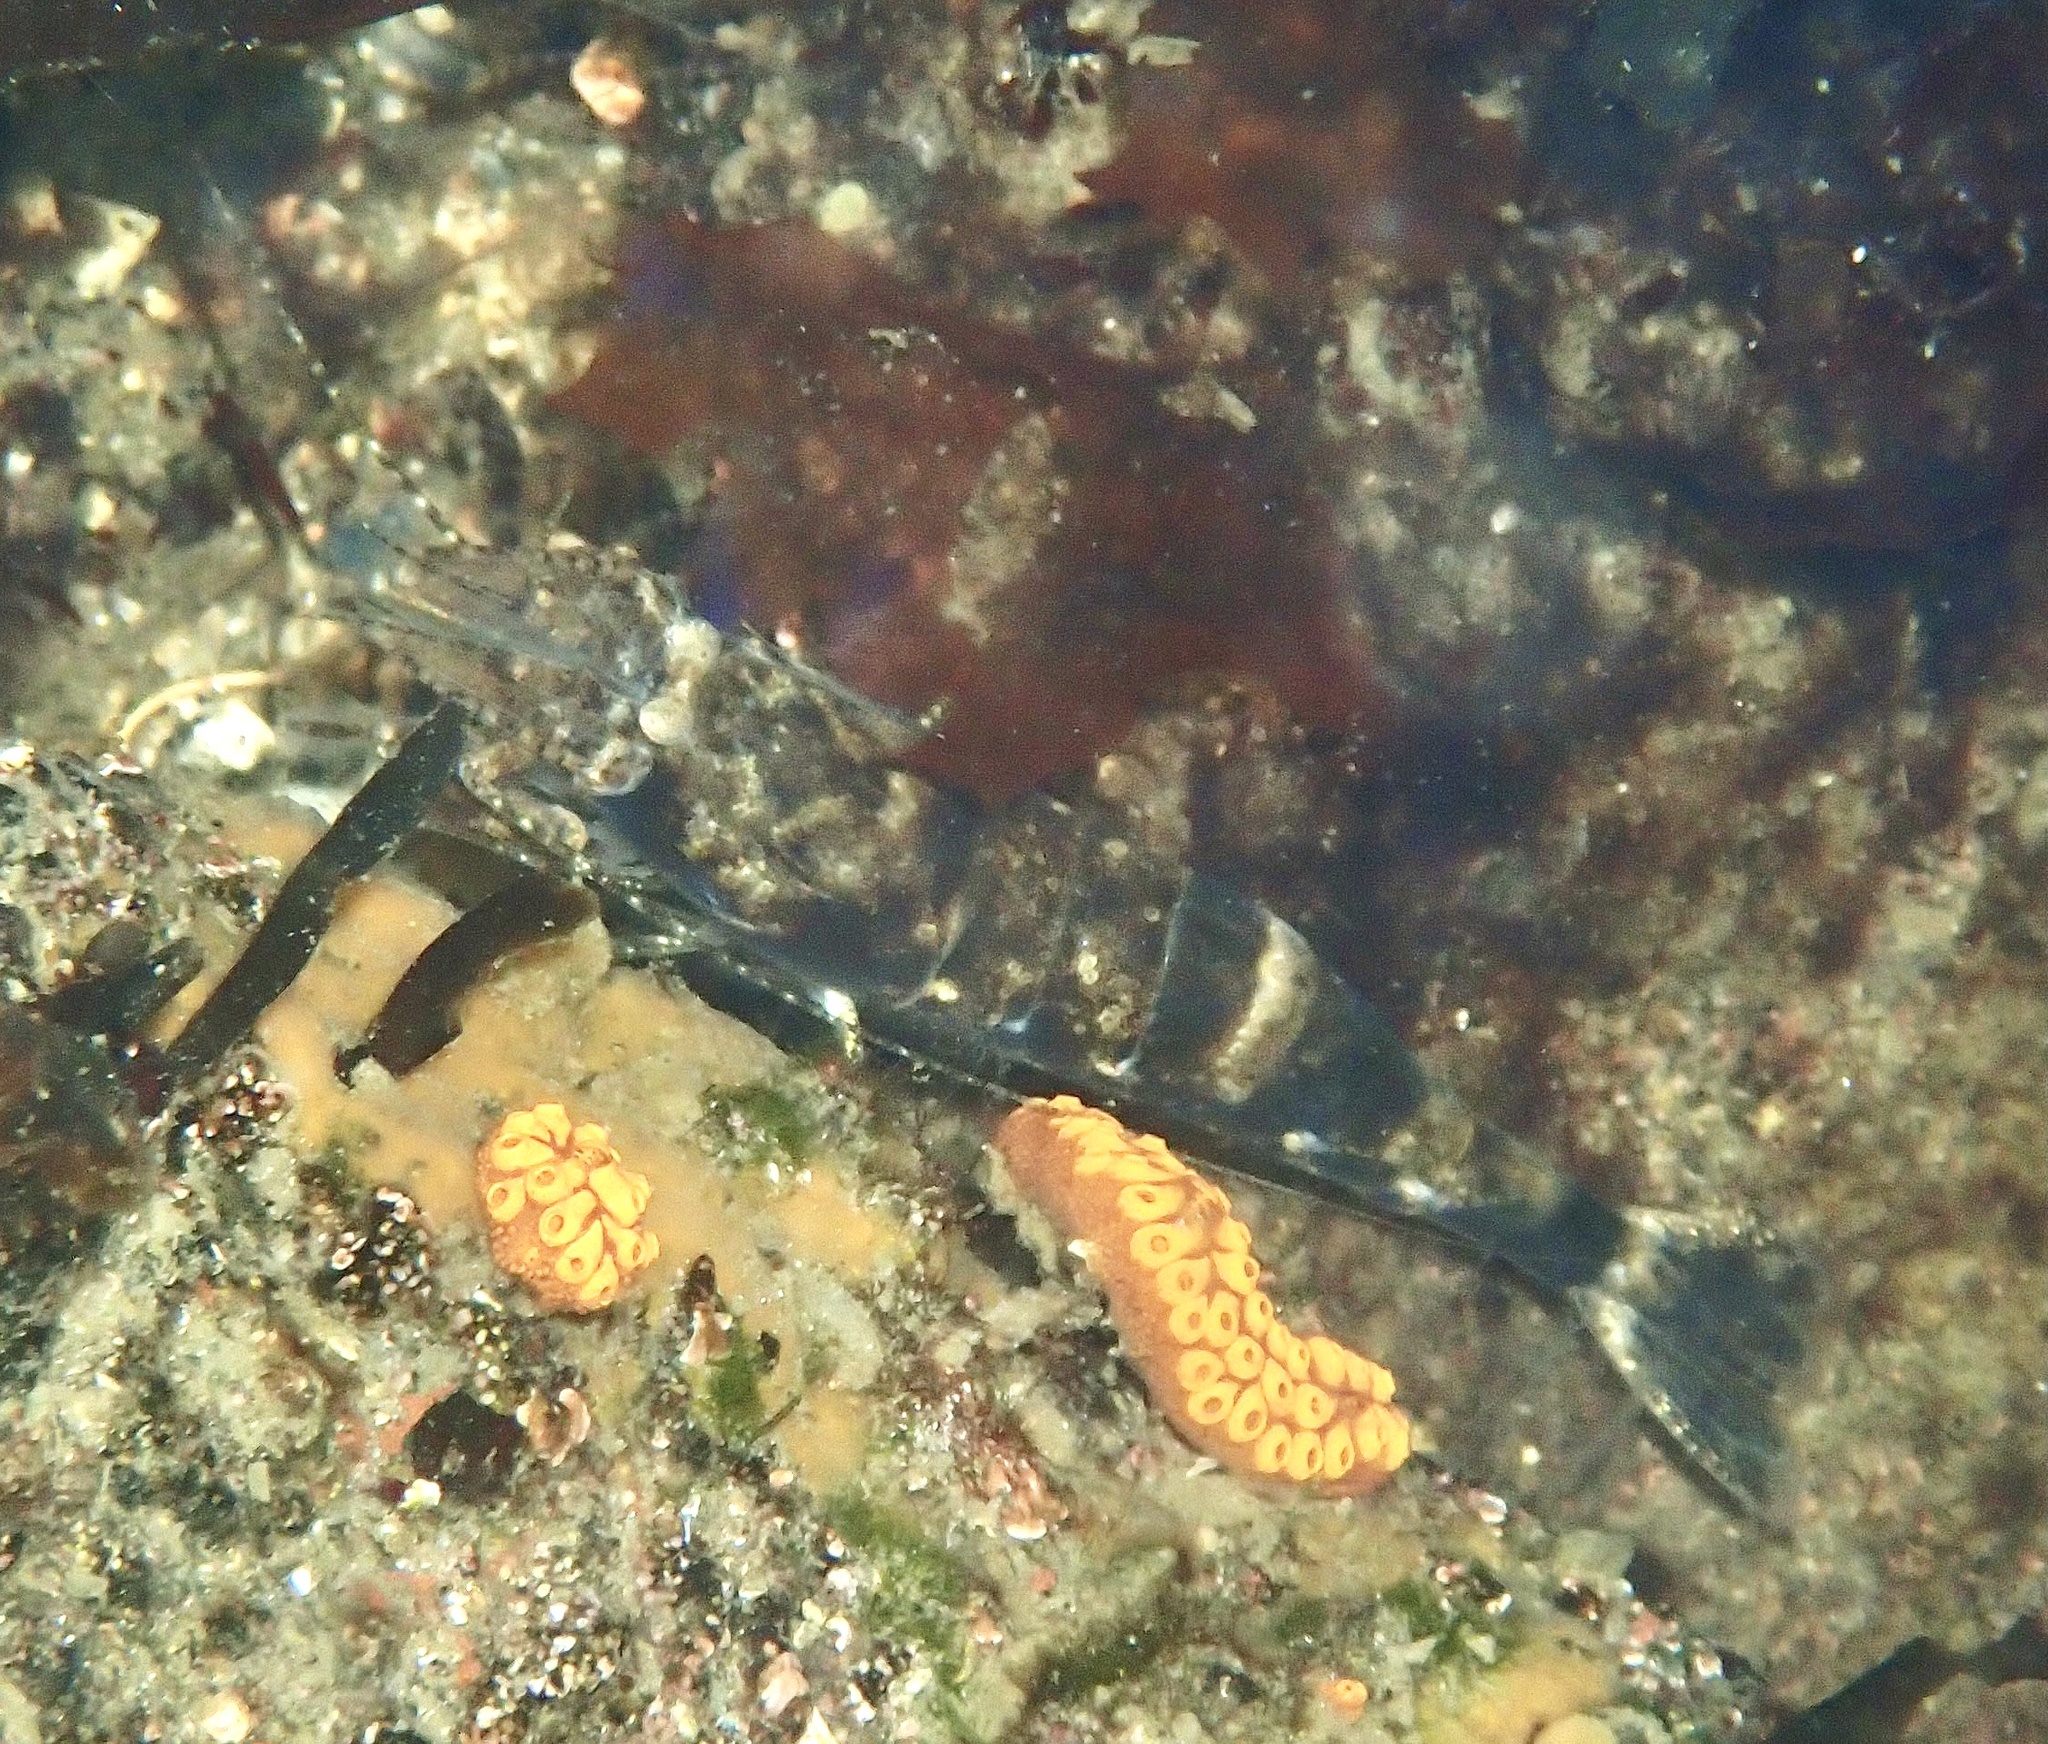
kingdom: Animalia
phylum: Arthropoda
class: Malacostraca
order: Decapoda
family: Crangonidae
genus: Crangon
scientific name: Crangon crangon
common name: Brown shrimp
